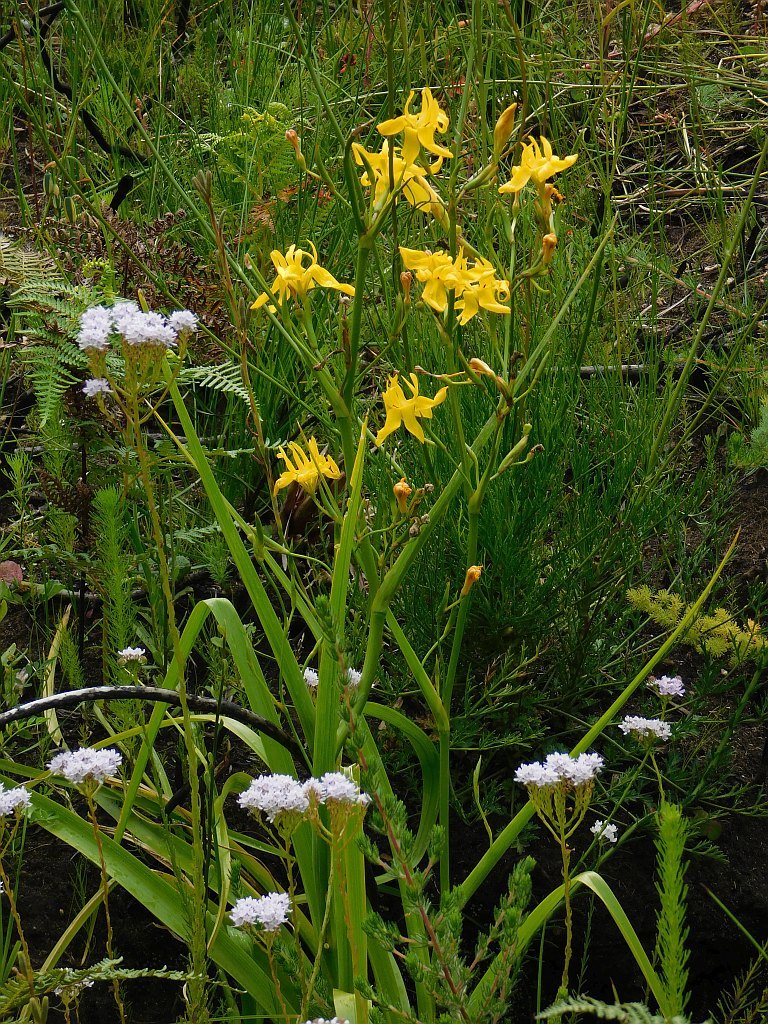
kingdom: Plantae
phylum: Tracheophyta
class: Liliopsida
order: Asparagales
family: Iridaceae
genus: Moraea
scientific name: Moraea ramosissima
